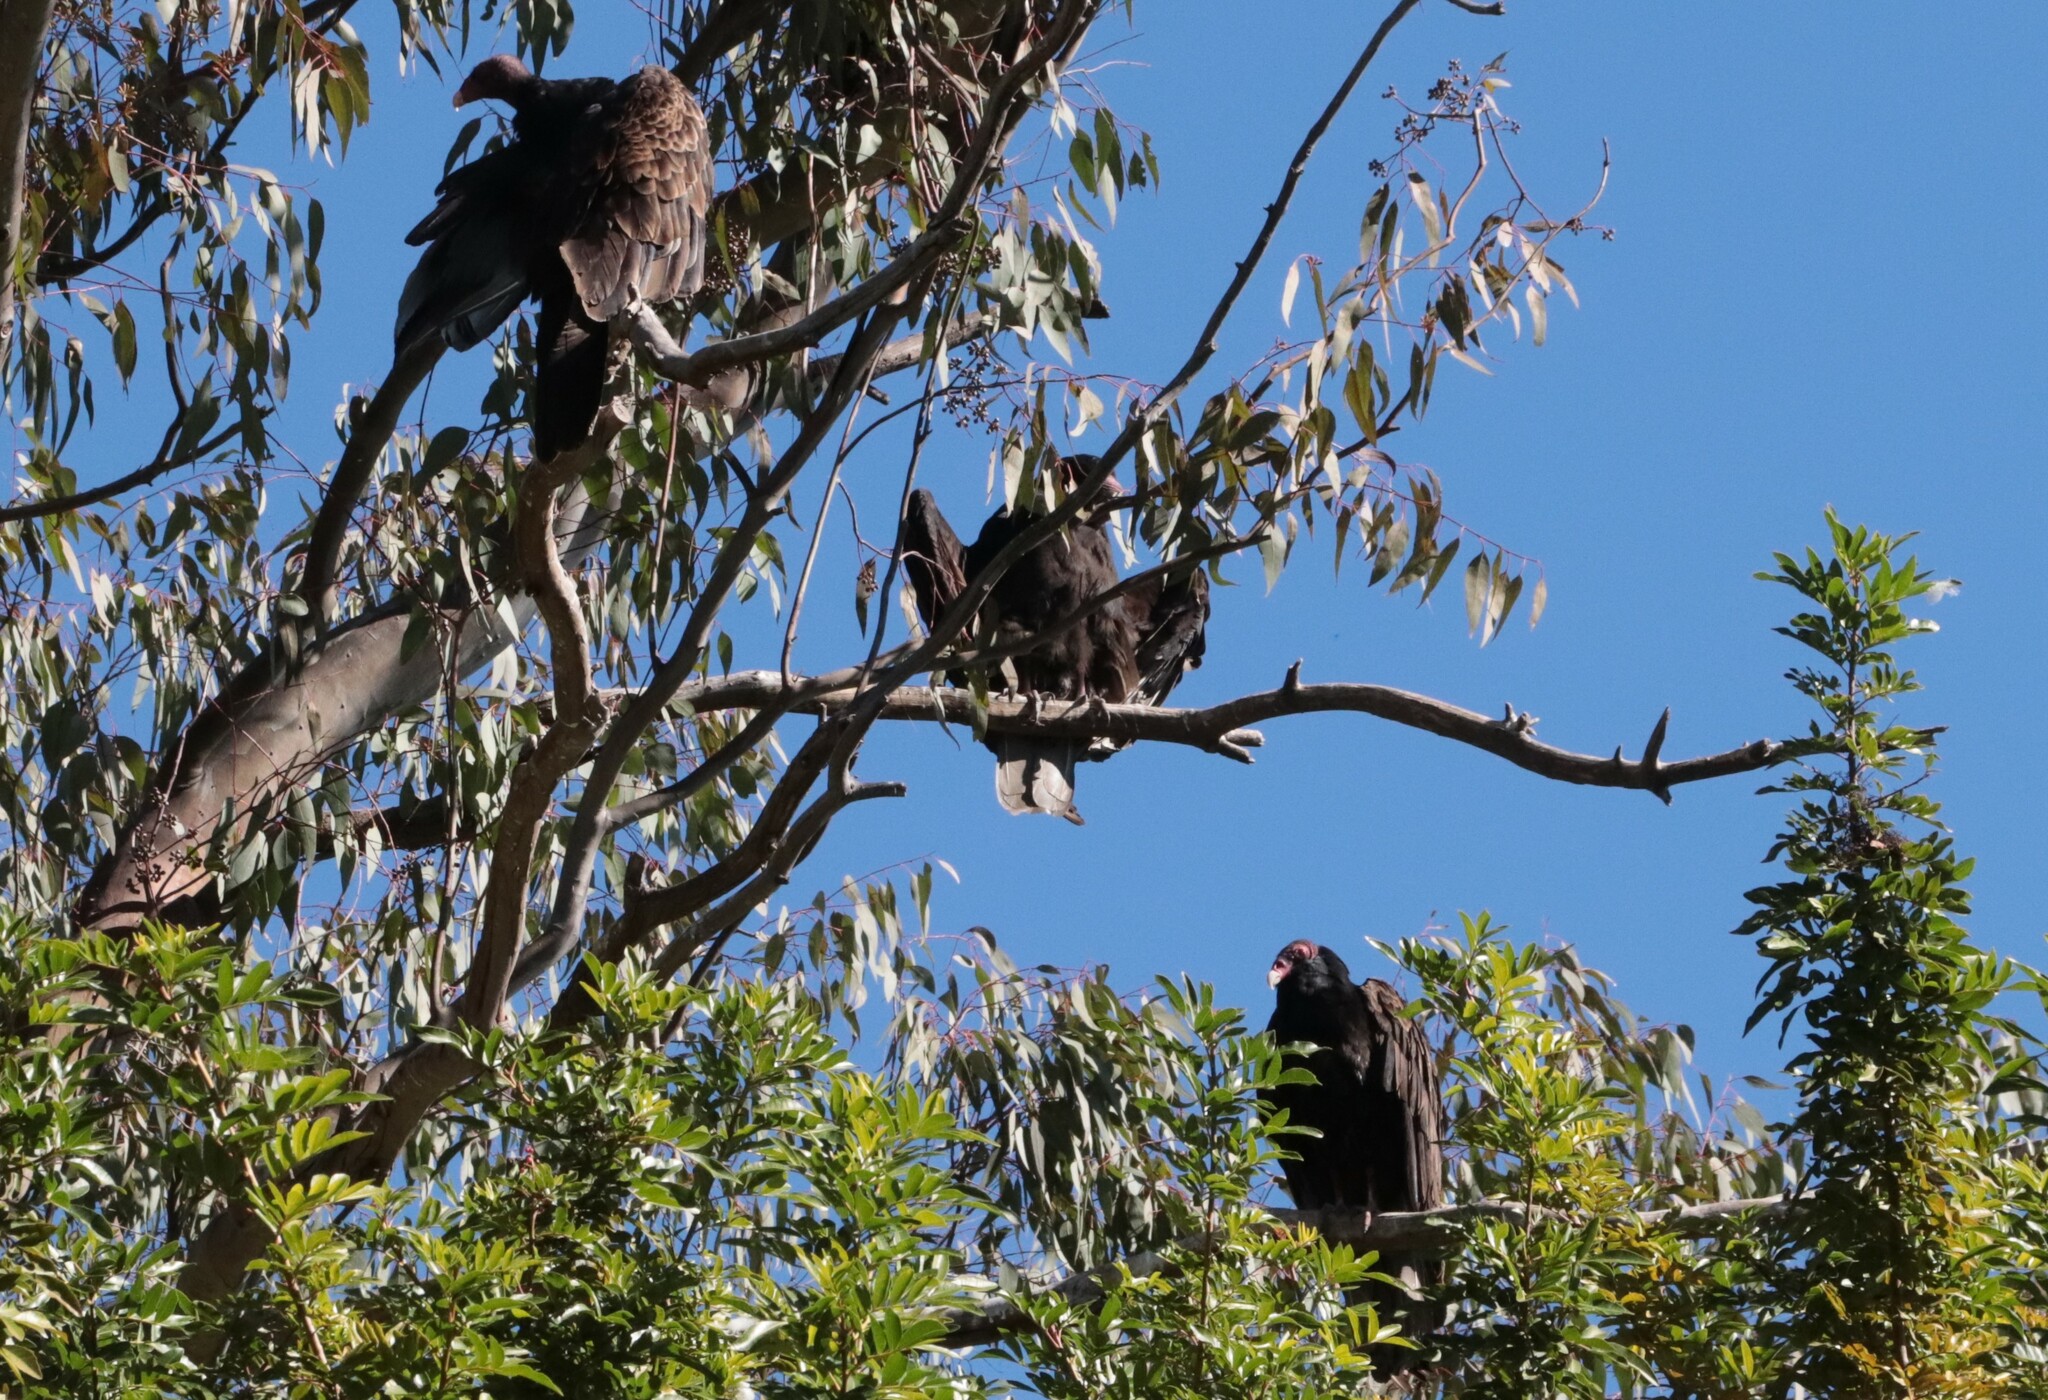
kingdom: Animalia
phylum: Chordata
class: Aves
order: Accipitriformes
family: Cathartidae
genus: Cathartes
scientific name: Cathartes aura
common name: Turkey vulture
